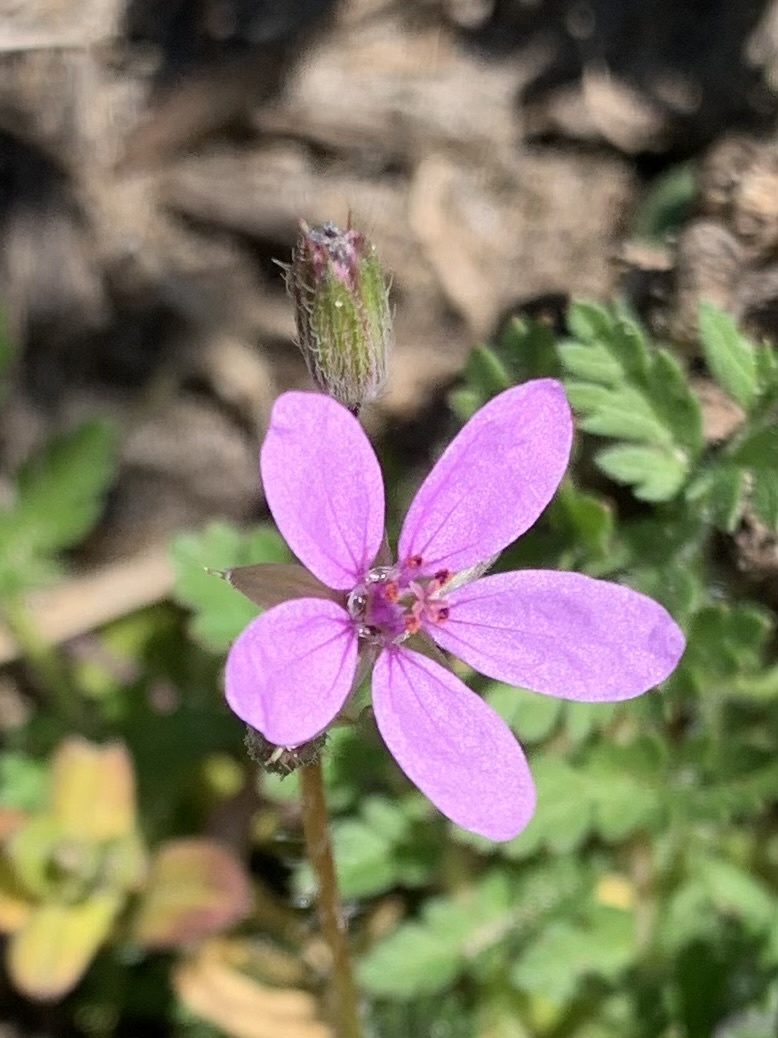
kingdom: Plantae
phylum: Tracheophyta
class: Magnoliopsida
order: Geraniales
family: Geraniaceae
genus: Erodium
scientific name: Erodium cicutarium
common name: Common stork's-bill
